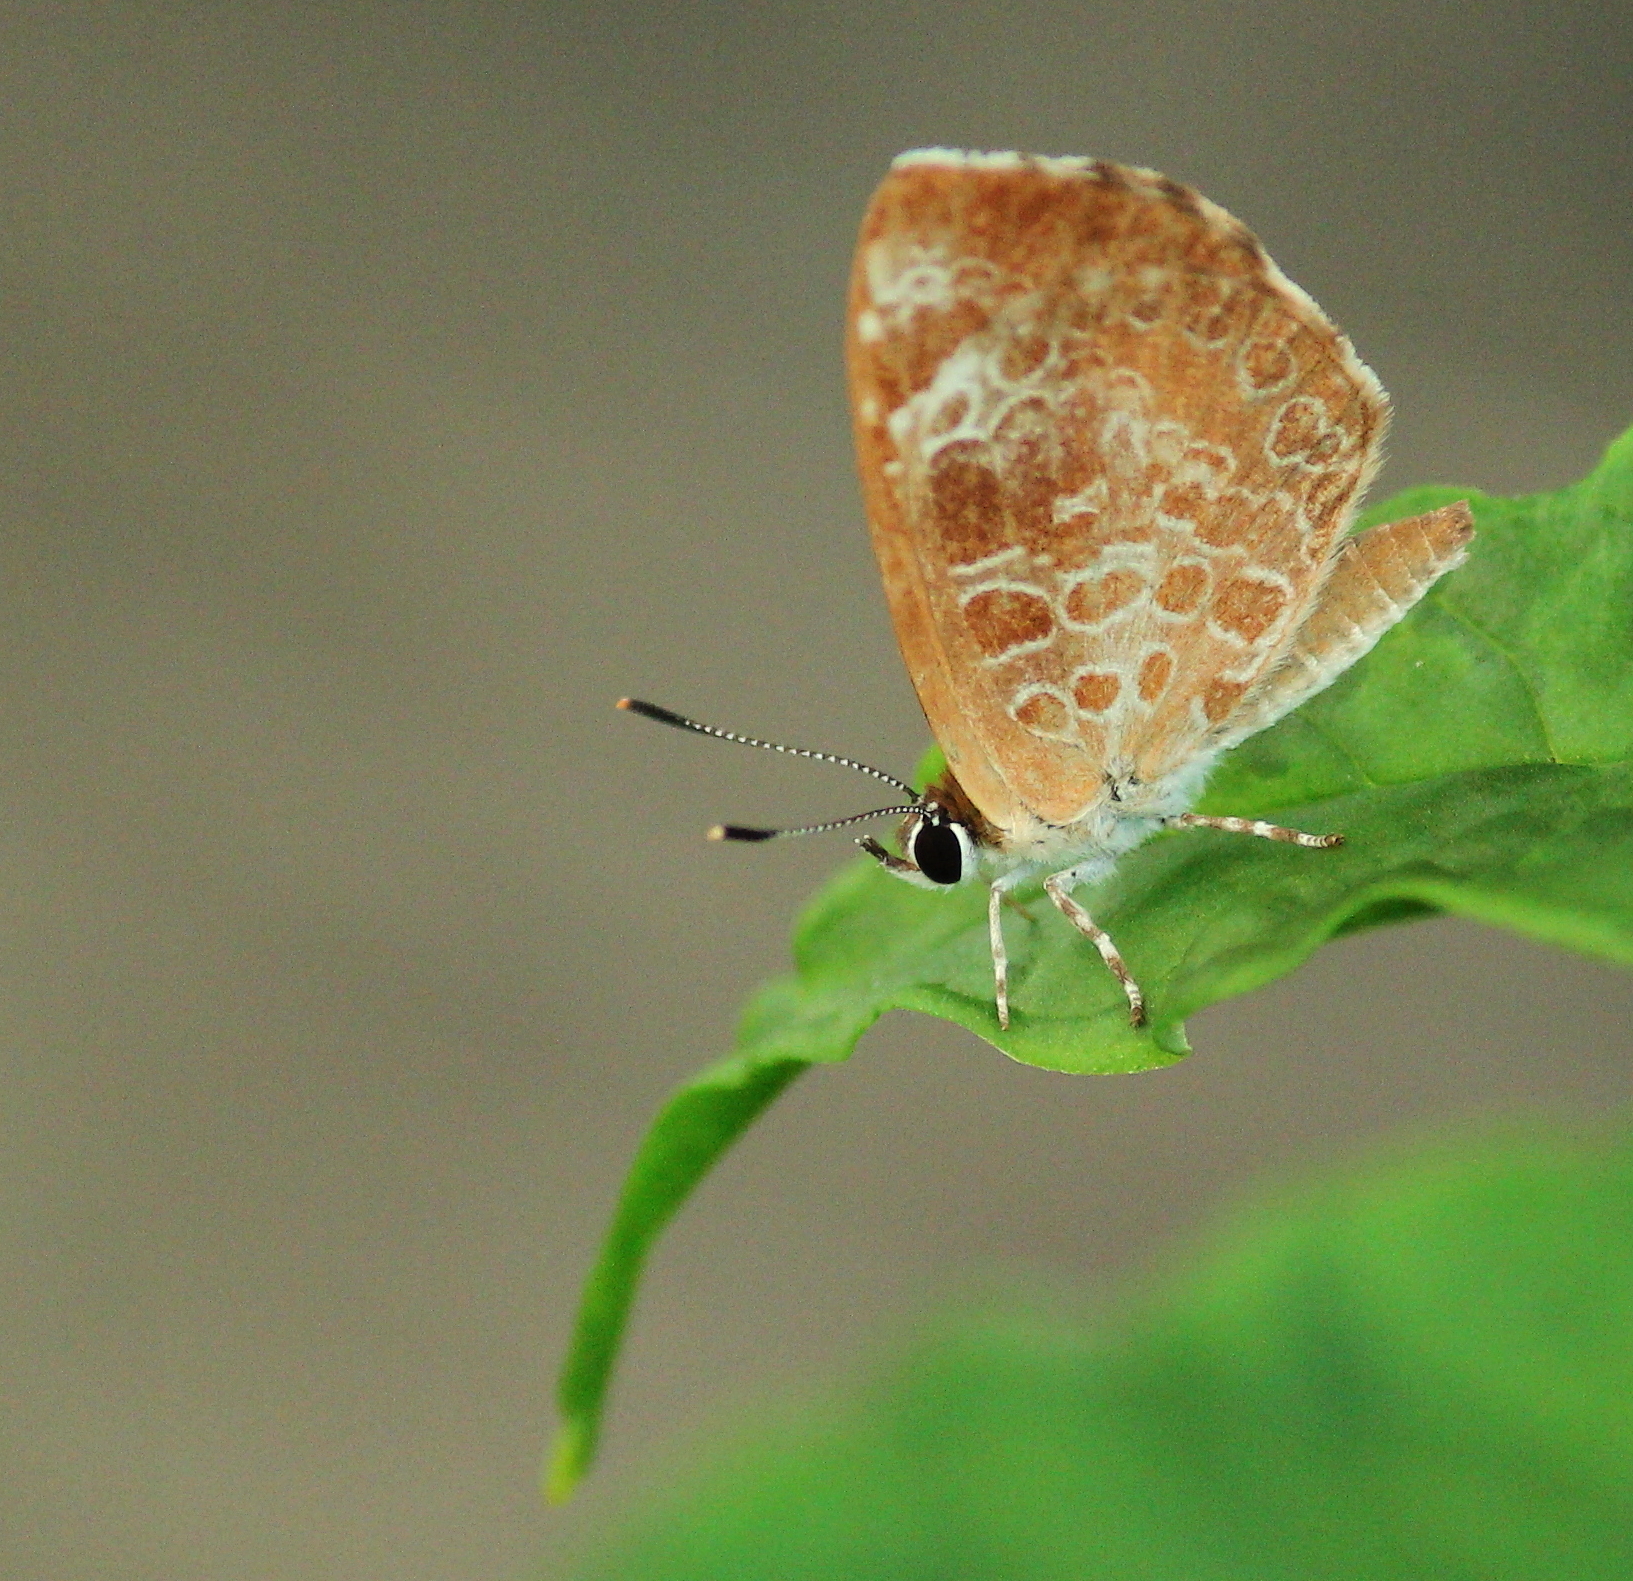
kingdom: Animalia
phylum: Arthropoda
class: Insecta
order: Lepidoptera
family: Lycaenidae
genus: Feniseca
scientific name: Feniseca tarquinius
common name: Harvester
